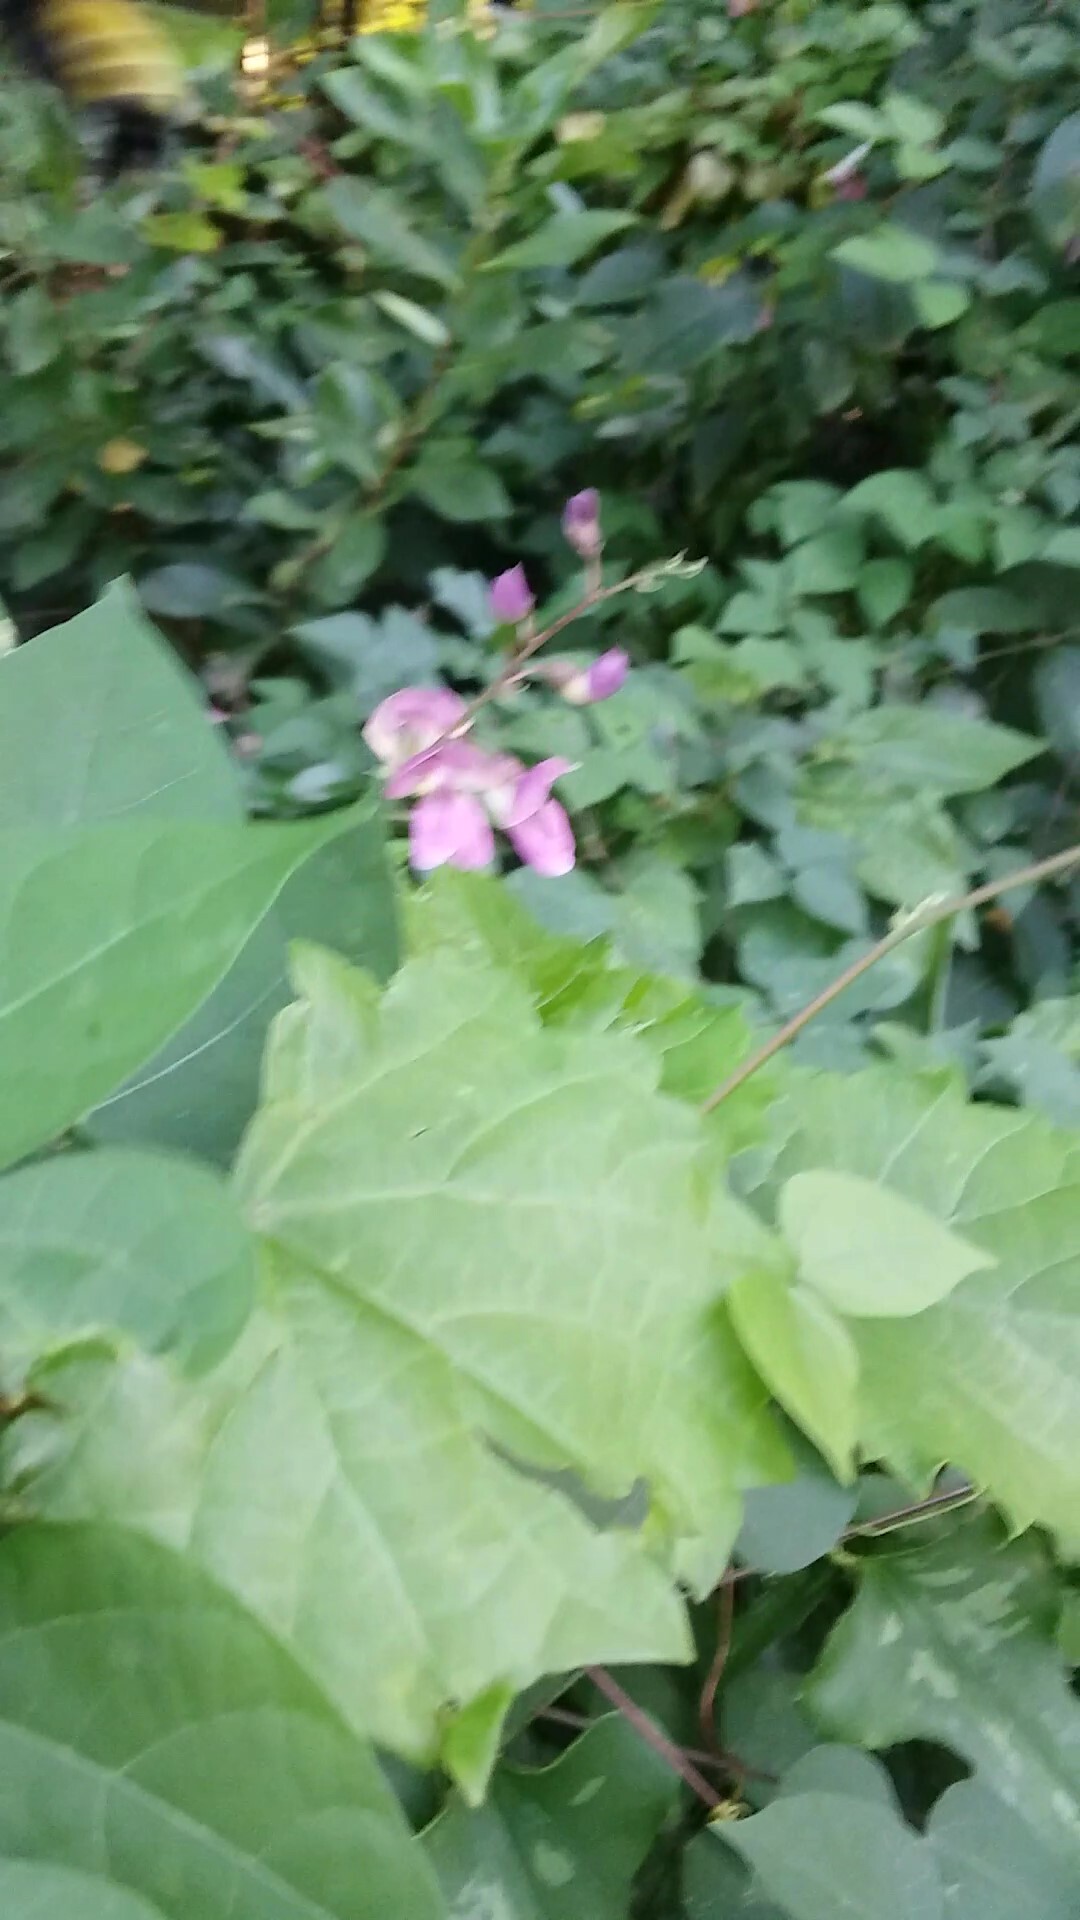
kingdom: Animalia
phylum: Arthropoda
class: Insecta
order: Hymenoptera
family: Apidae
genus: Bombus
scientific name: Bombus pensylvanicus
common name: Bumble bee
